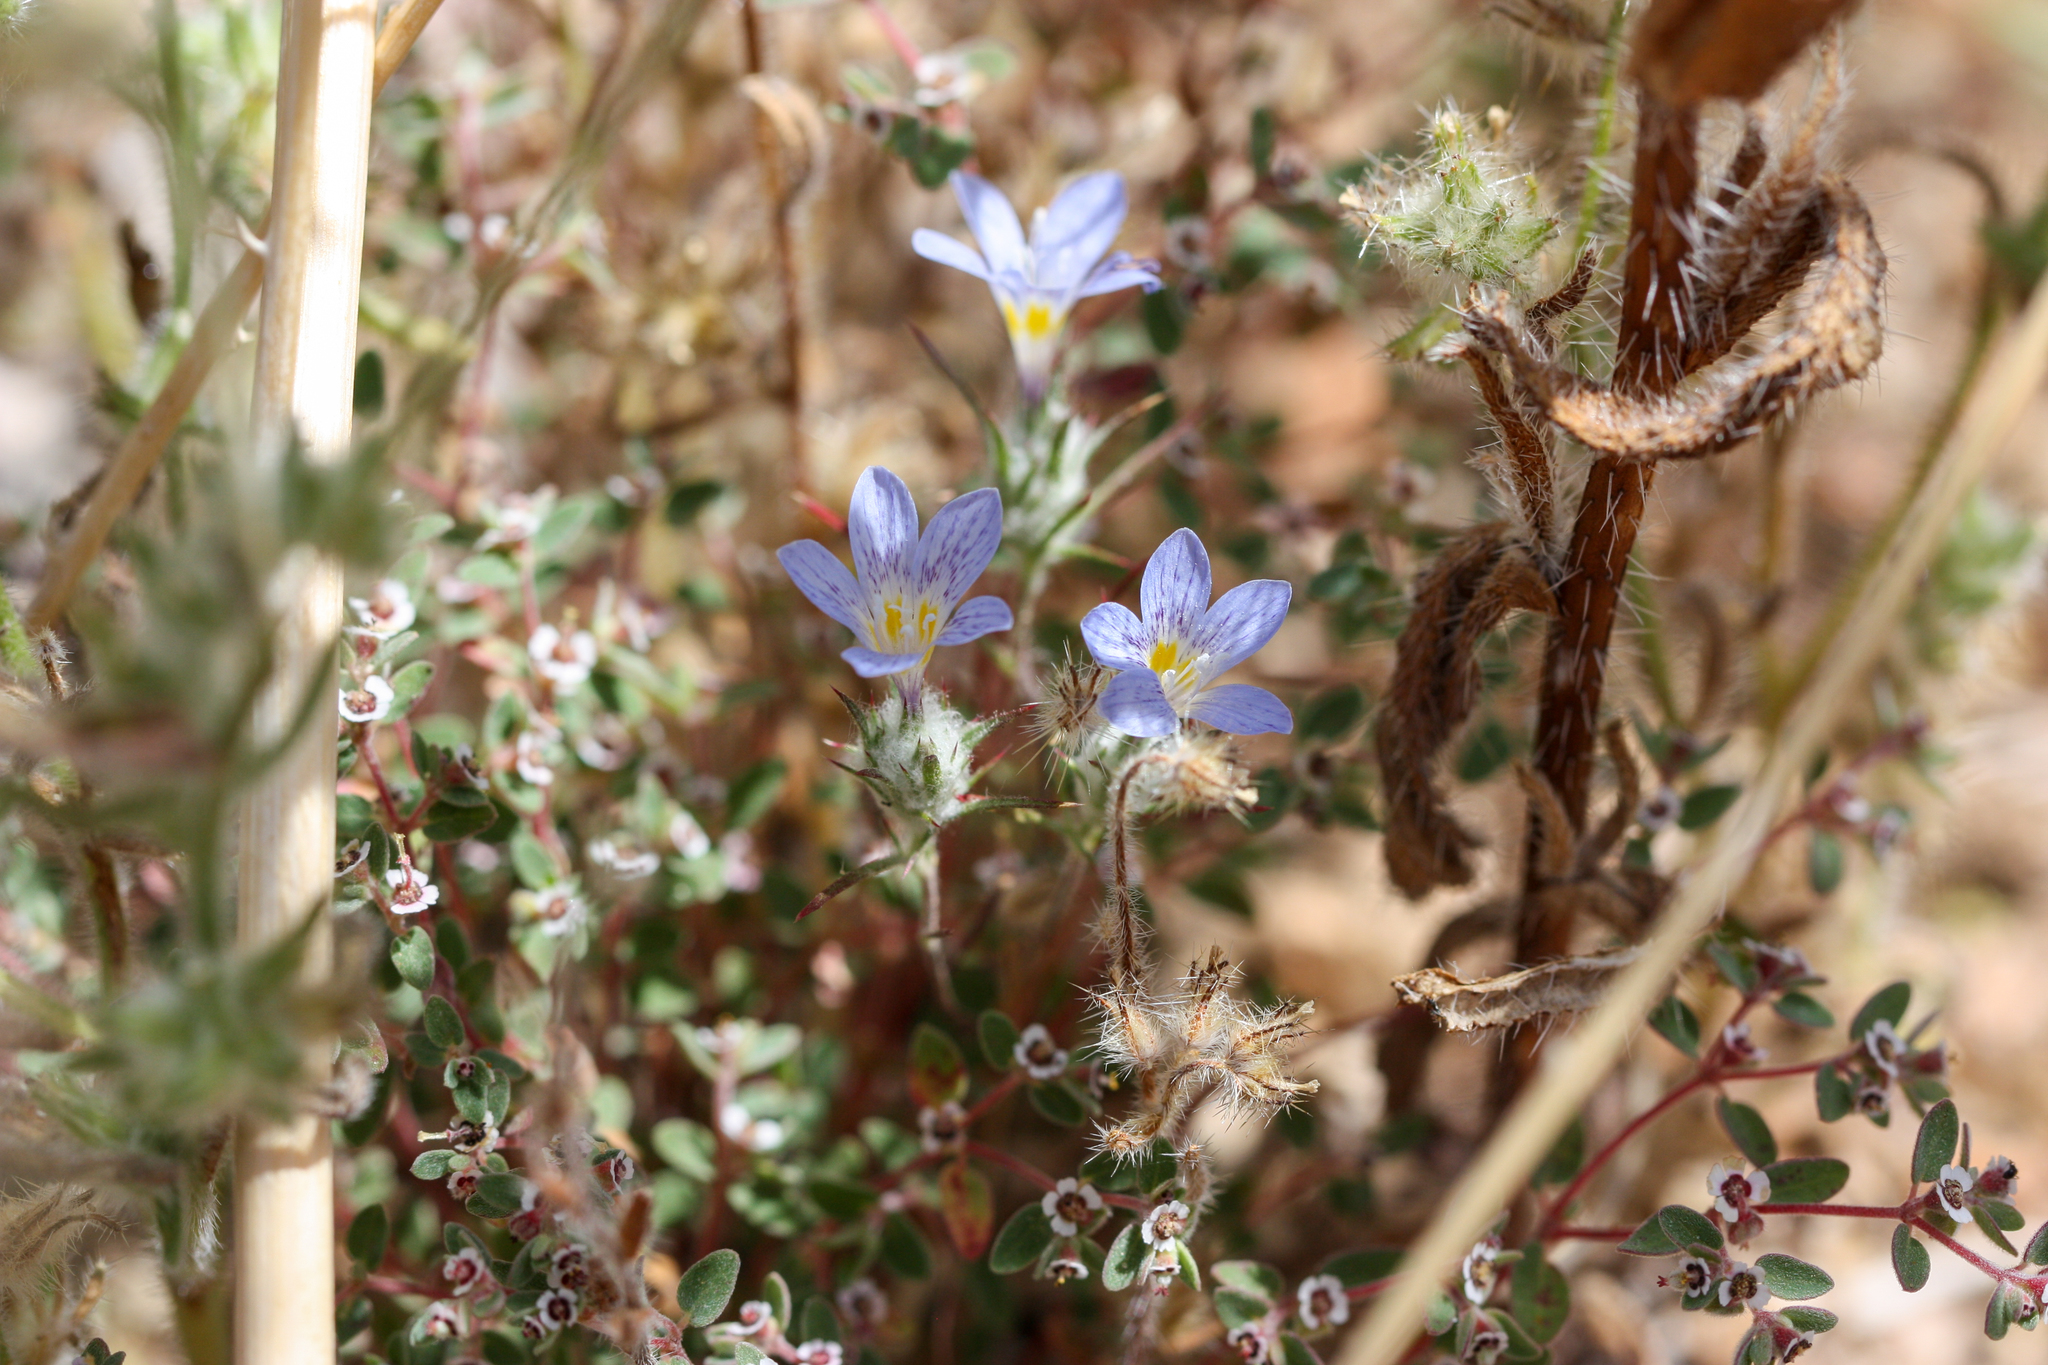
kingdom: Plantae
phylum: Tracheophyta
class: Magnoliopsida
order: Ericales
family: Polemoniaceae
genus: Eriastrum
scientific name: Eriastrum eremicum
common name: Desert eriastrum
